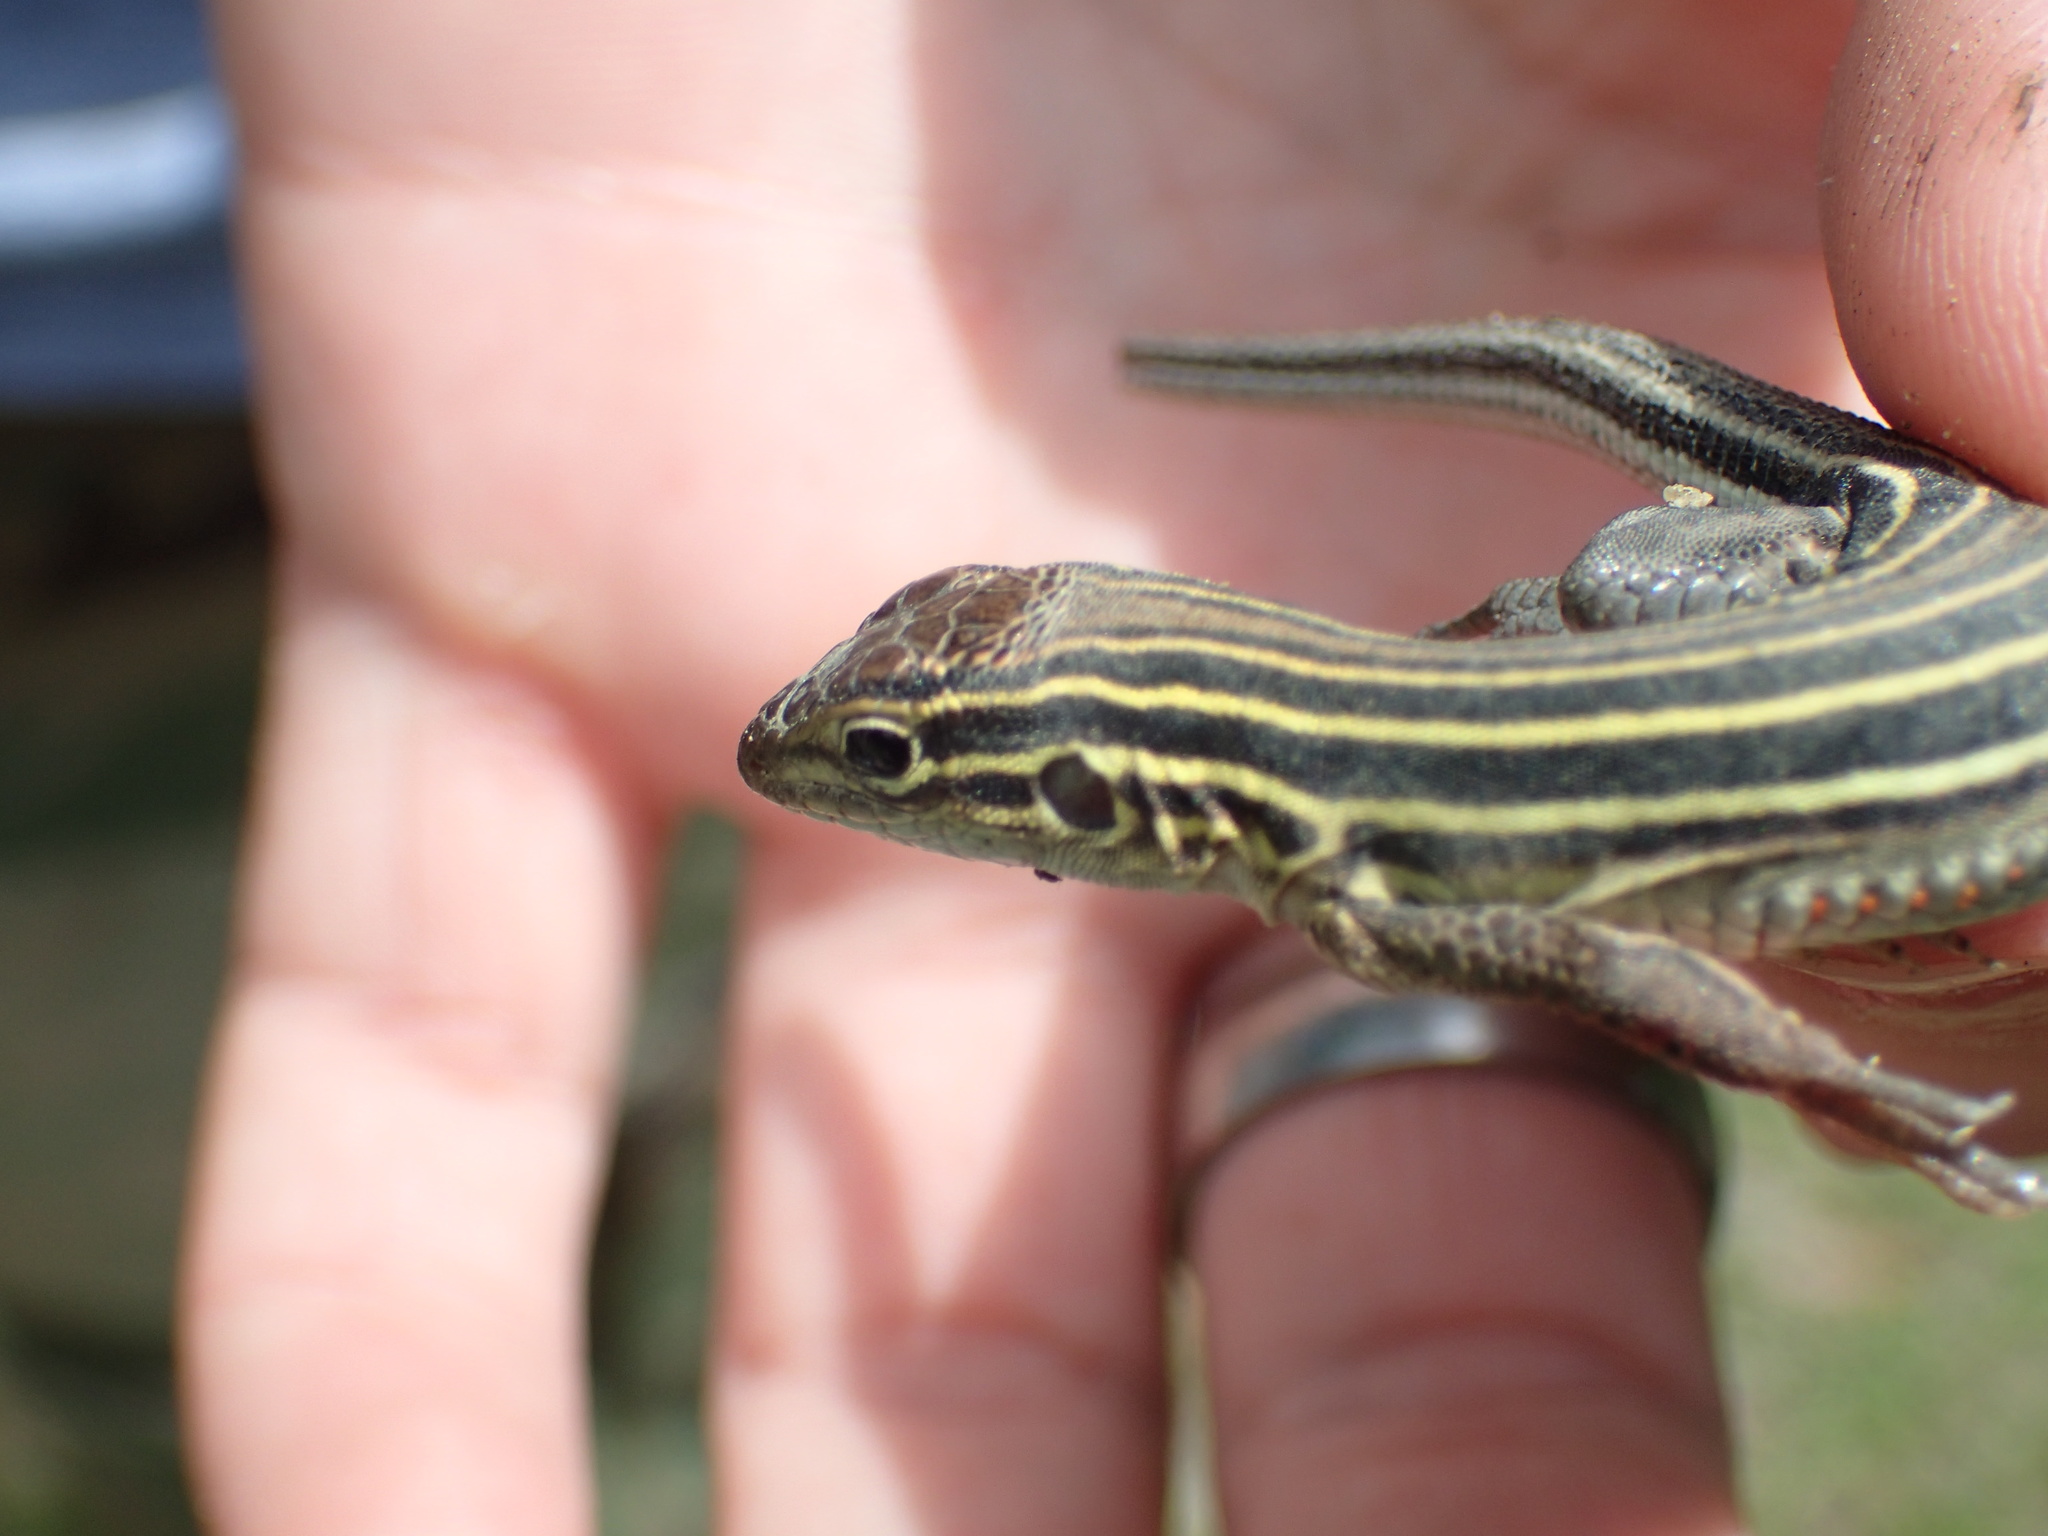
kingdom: Animalia
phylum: Chordata
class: Squamata
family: Teiidae
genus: Aspidoscelis
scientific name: Aspidoscelis sexlineatus
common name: Six-lined racerunner
